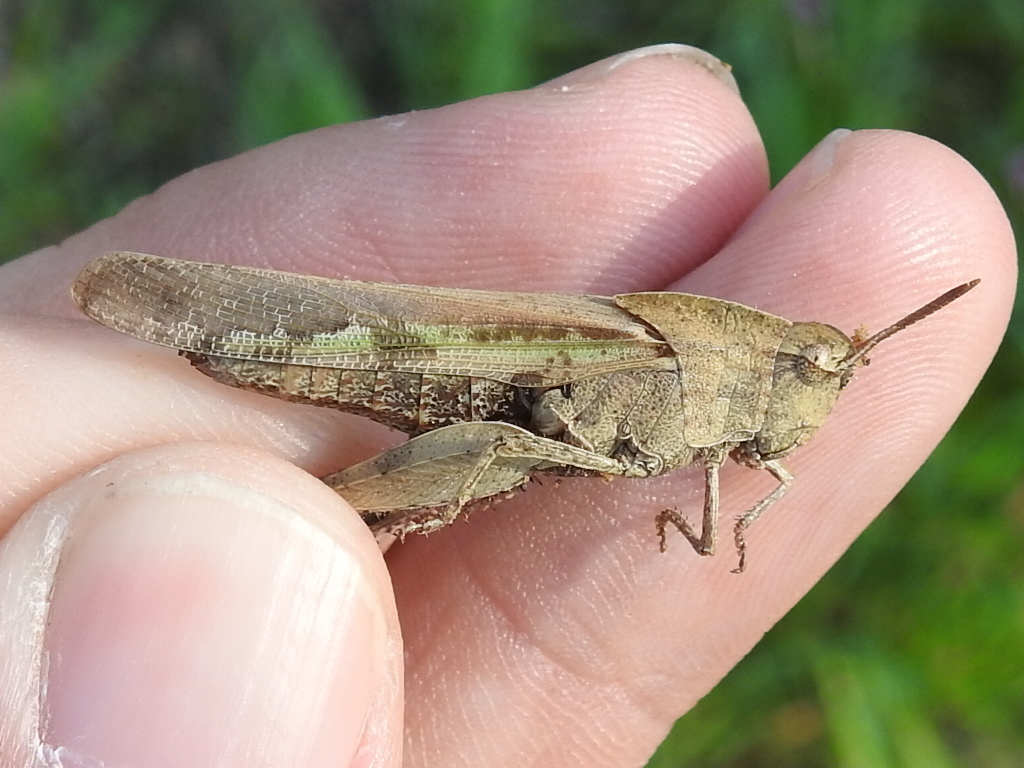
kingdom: Animalia
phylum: Arthropoda
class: Insecta
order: Orthoptera
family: Acrididae
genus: Chortophaga
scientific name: Chortophaga viridifasciata
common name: Green-striped grasshopper
